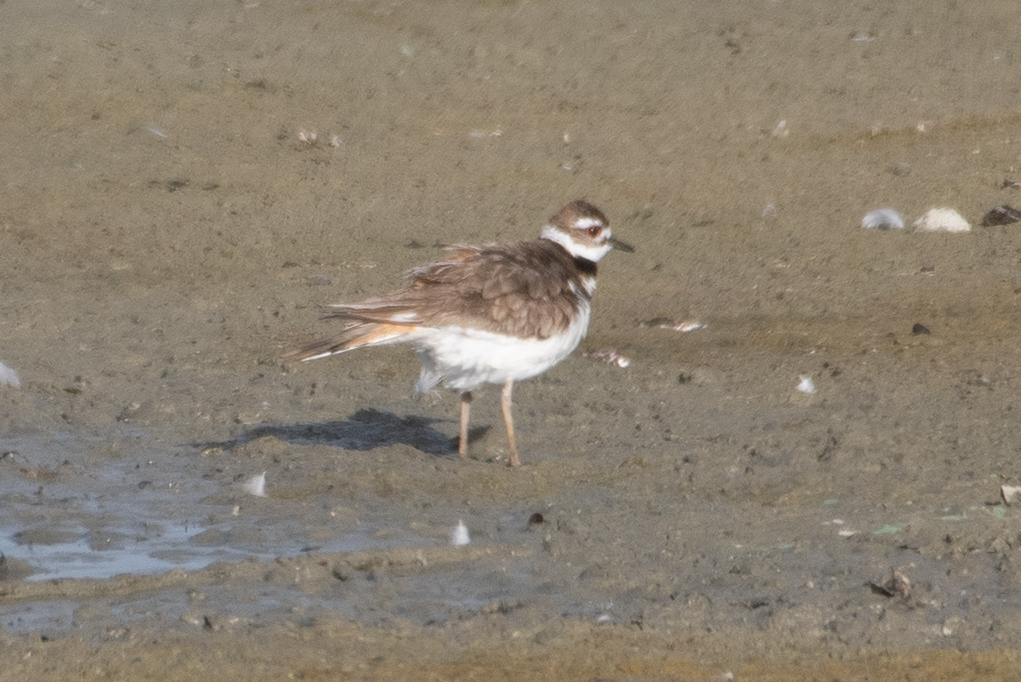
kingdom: Animalia
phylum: Chordata
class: Aves
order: Charadriiformes
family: Charadriidae
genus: Charadrius
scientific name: Charadrius vociferus
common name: Killdeer
